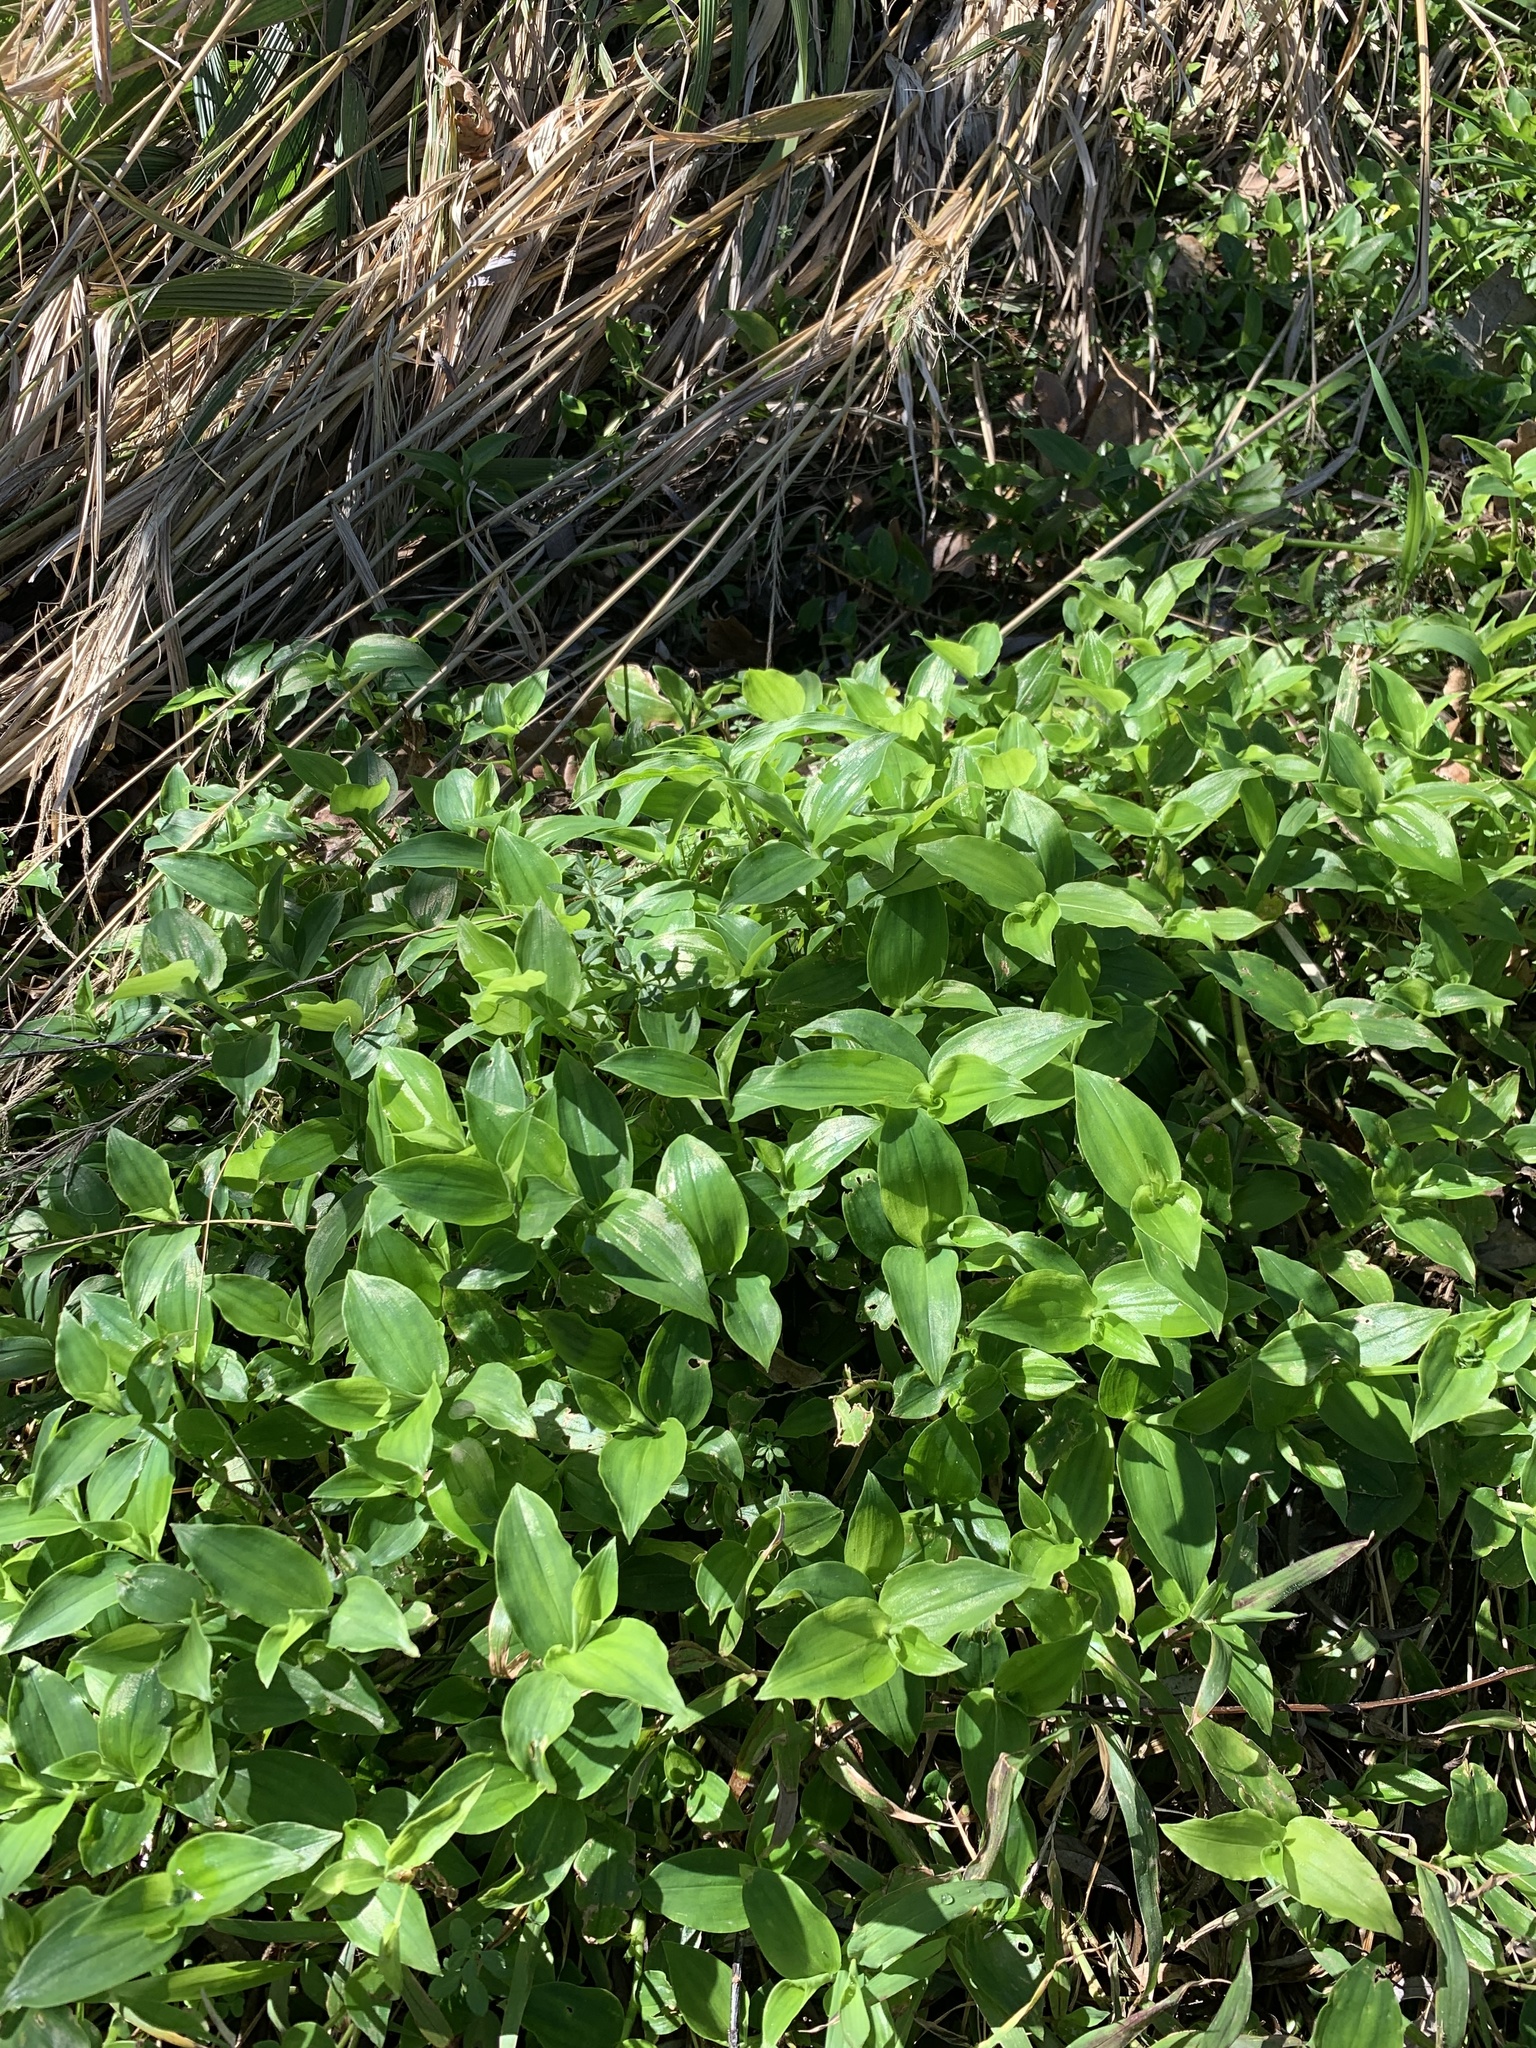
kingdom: Plantae
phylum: Tracheophyta
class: Liliopsida
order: Commelinales
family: Commelinaceae
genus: Tradescantia
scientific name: Tradescantia fluminensis
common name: Wandering-jew
